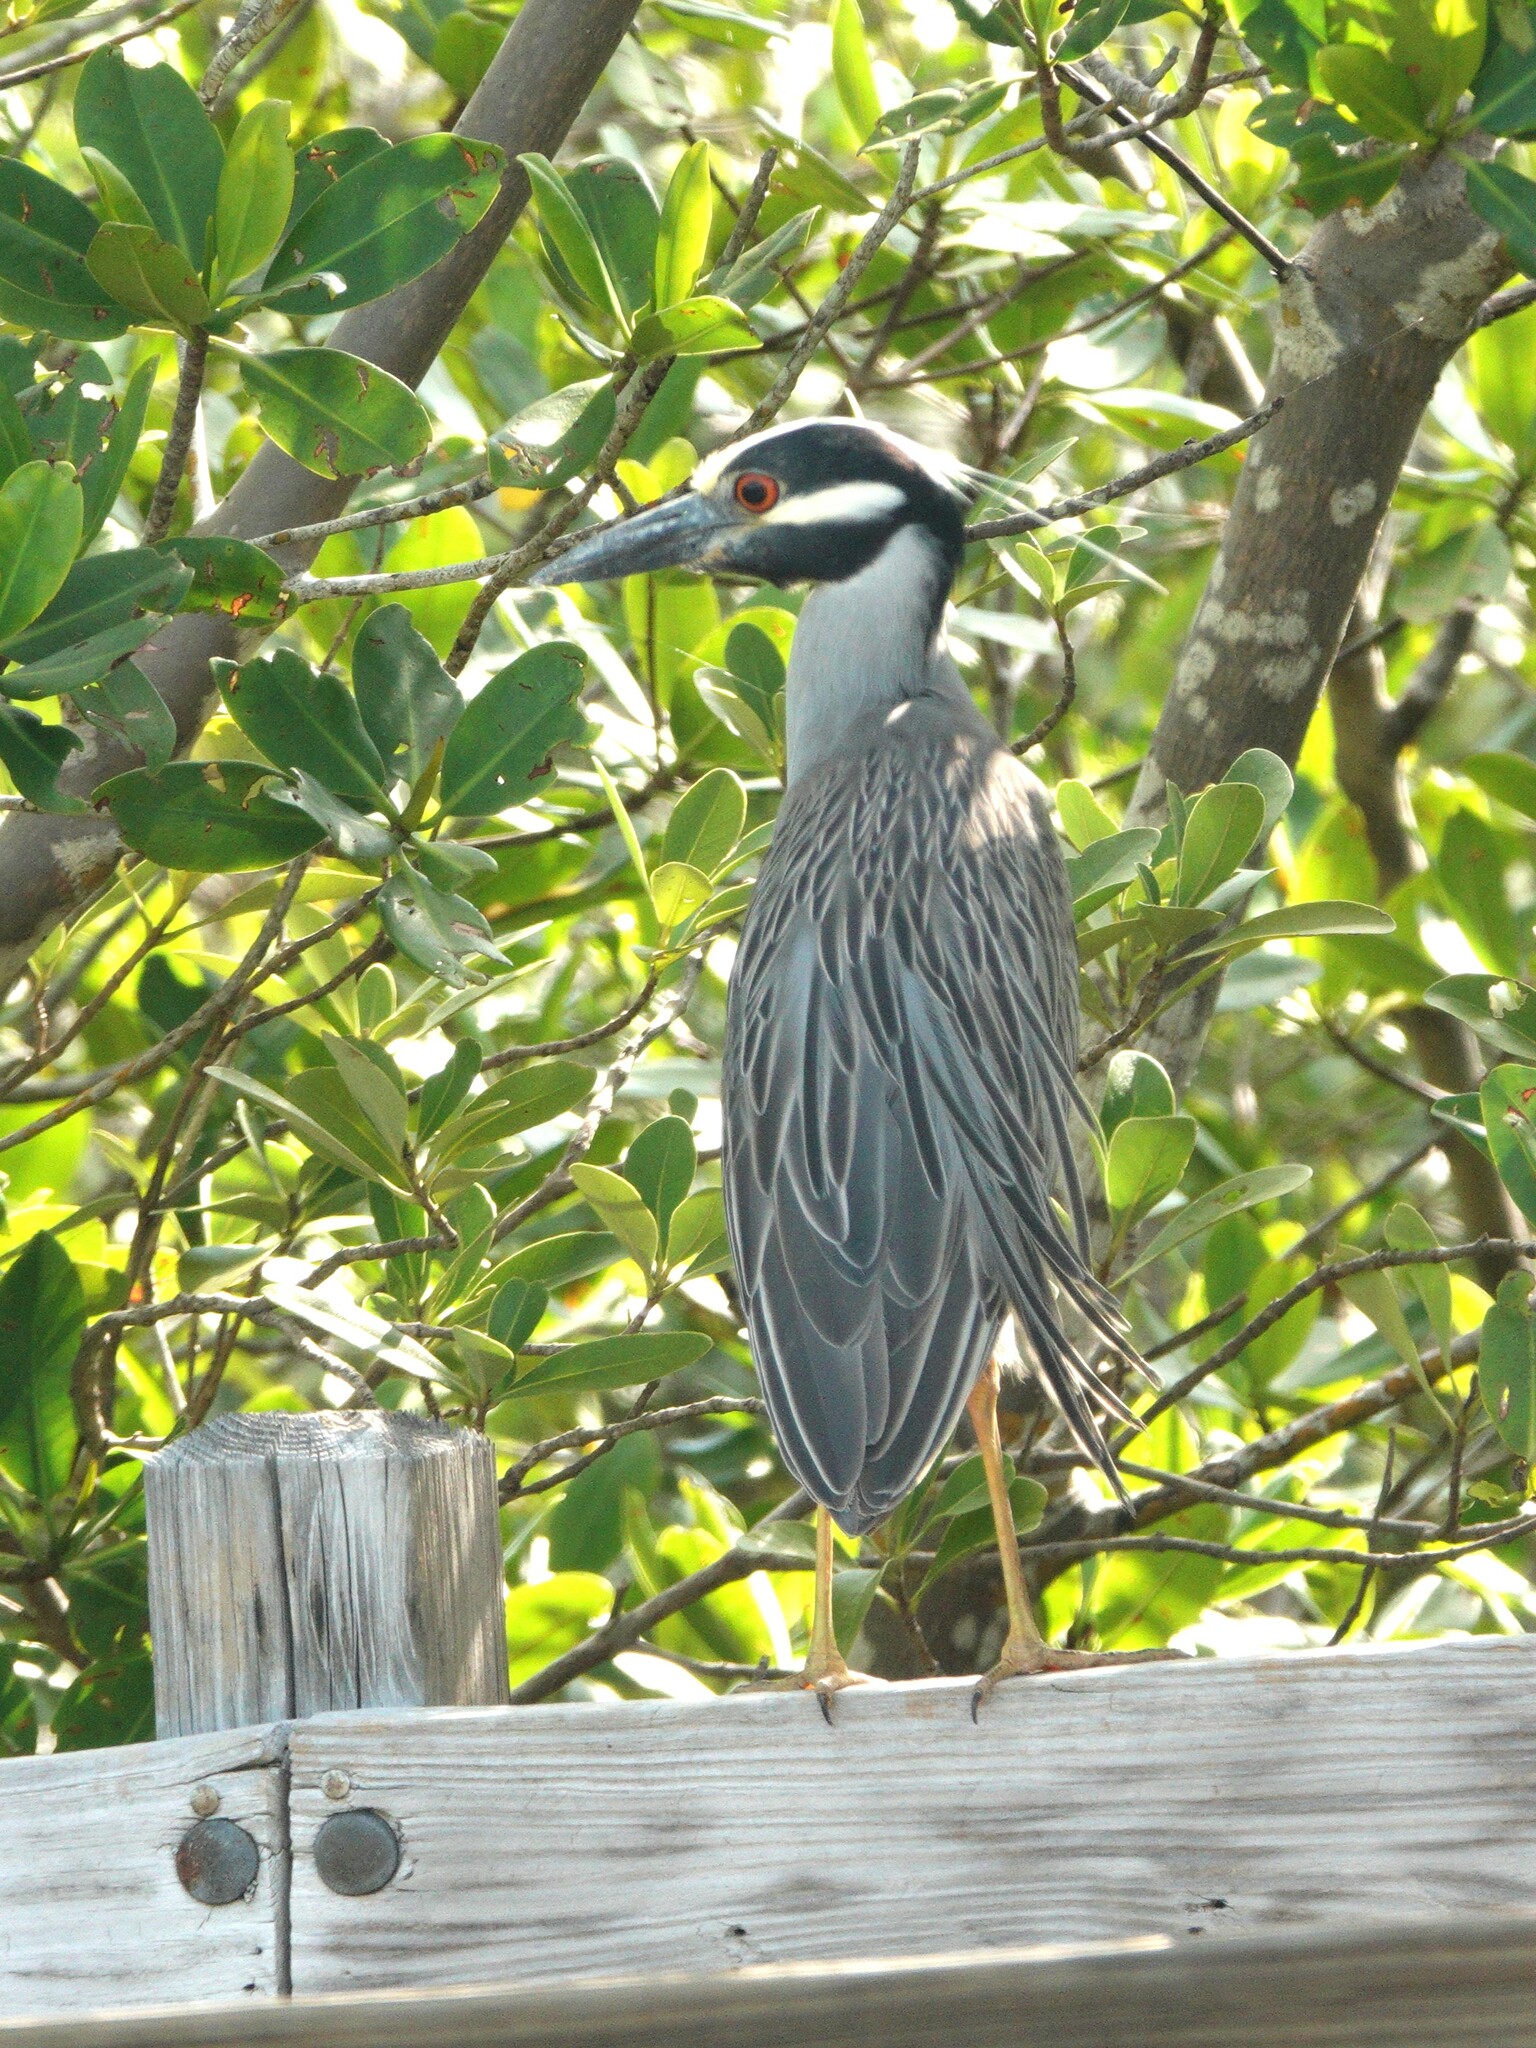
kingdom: Animalia
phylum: Chordata
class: Aves
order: Pelecaniformes
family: Ardeidae
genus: Nyctanassa
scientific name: Nyctanassa violacea
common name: Yellow-crowned night heron
